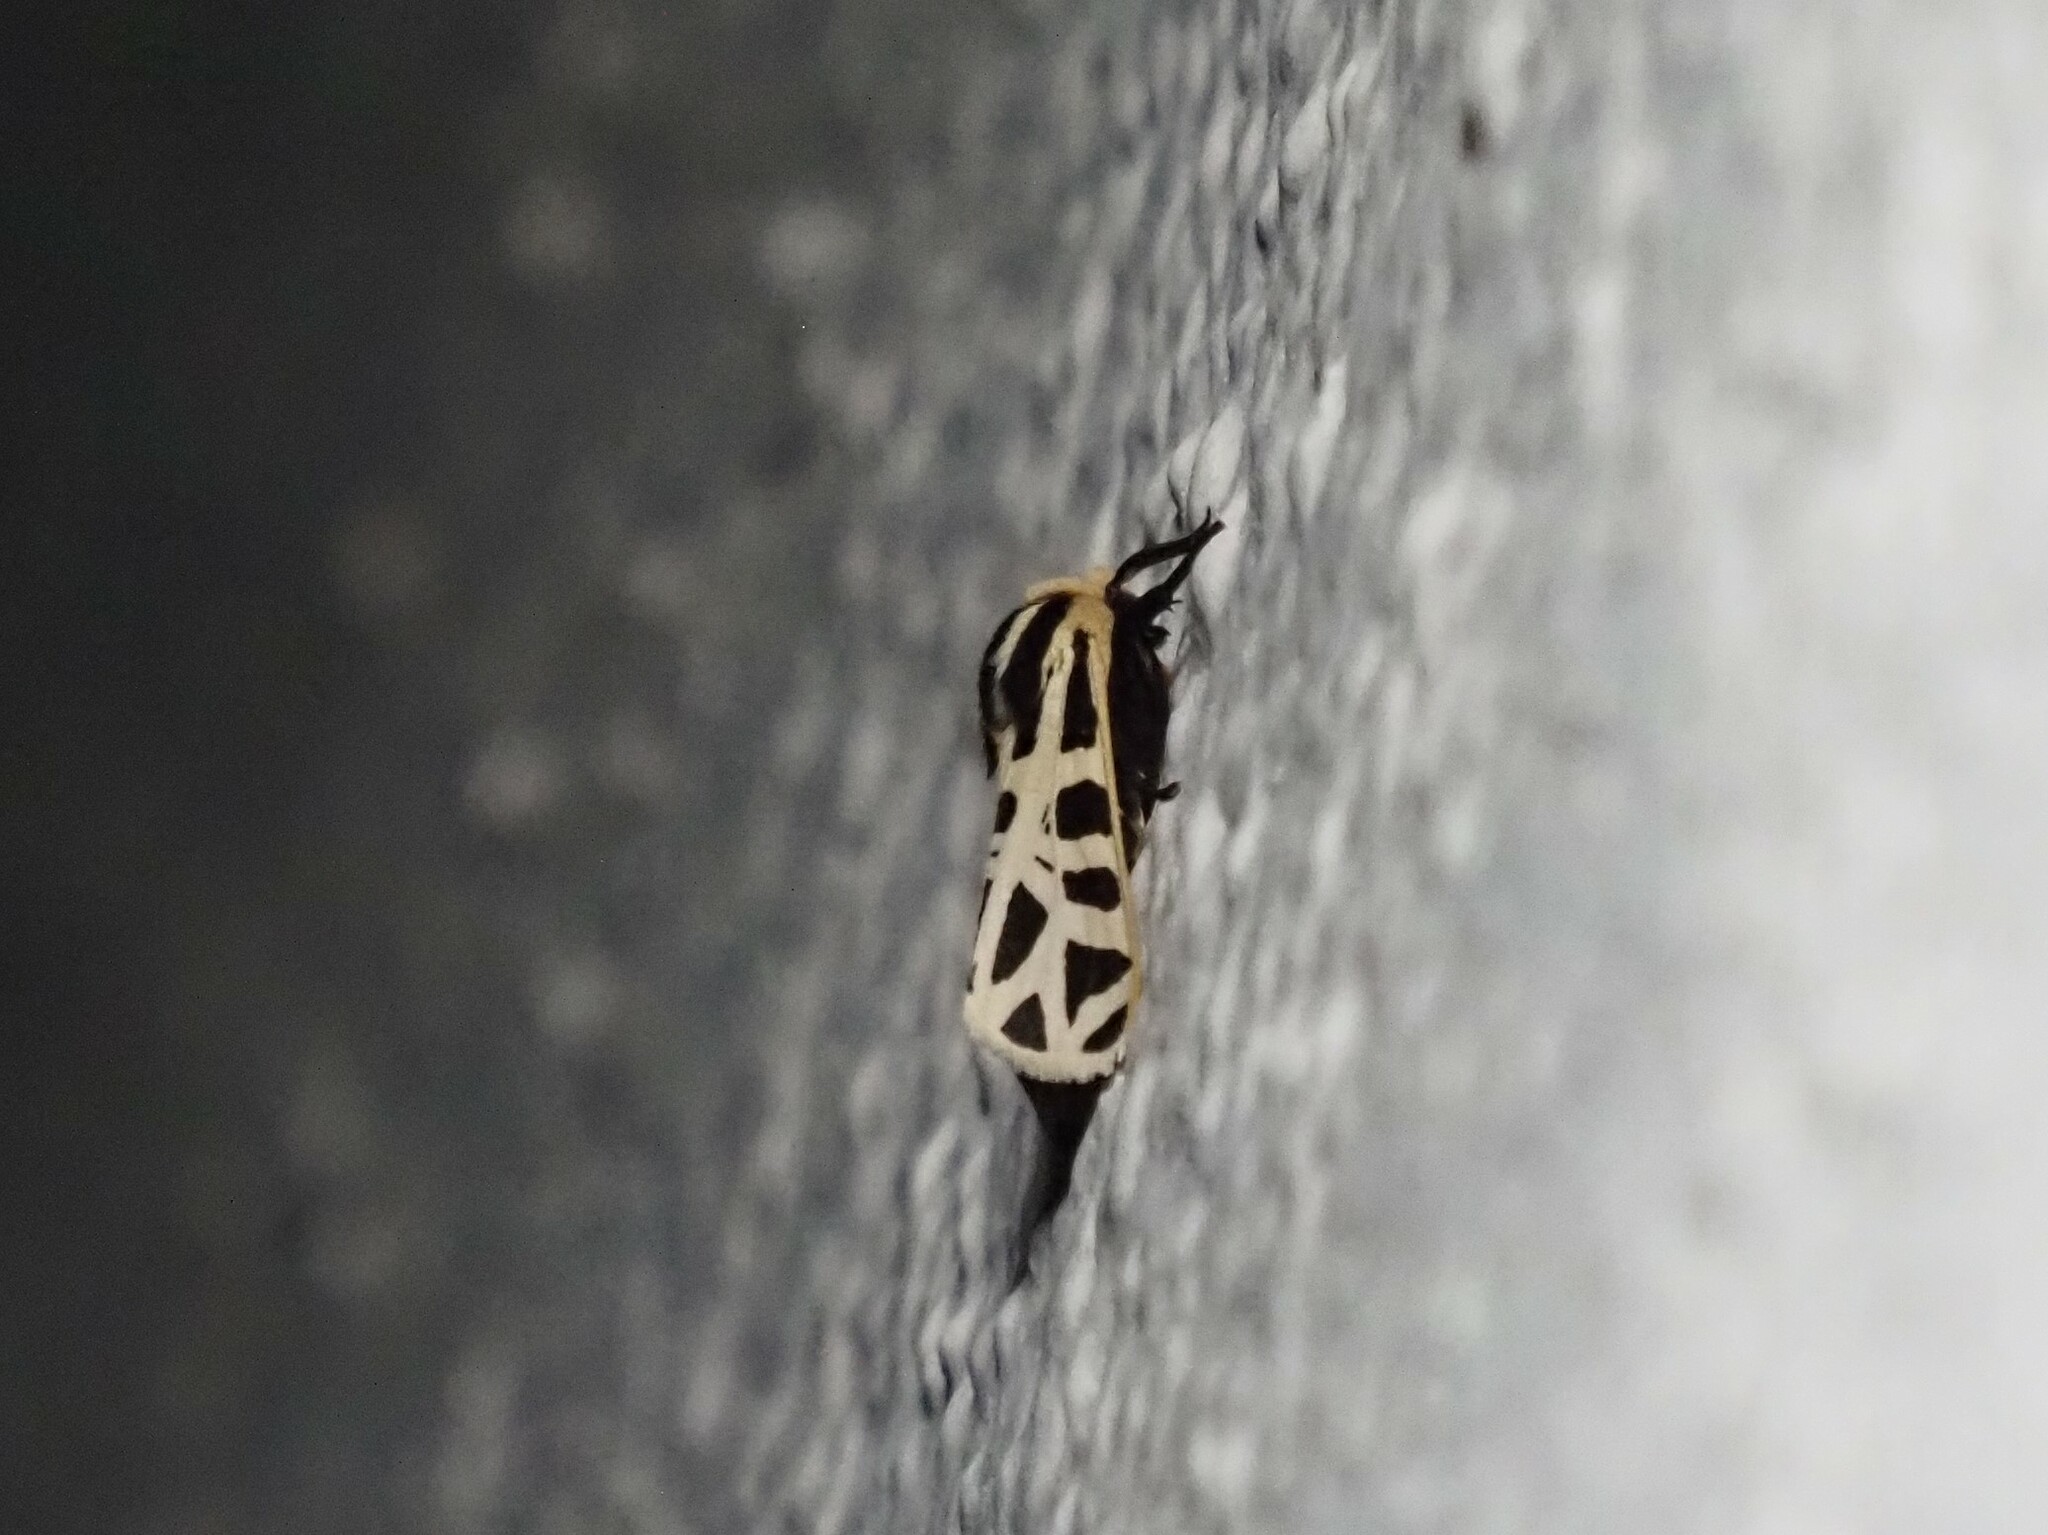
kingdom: Animalia
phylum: Arthropoda
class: Insecta
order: Lepidoptera
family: Erebidae
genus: Apantesis
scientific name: Apantesis
